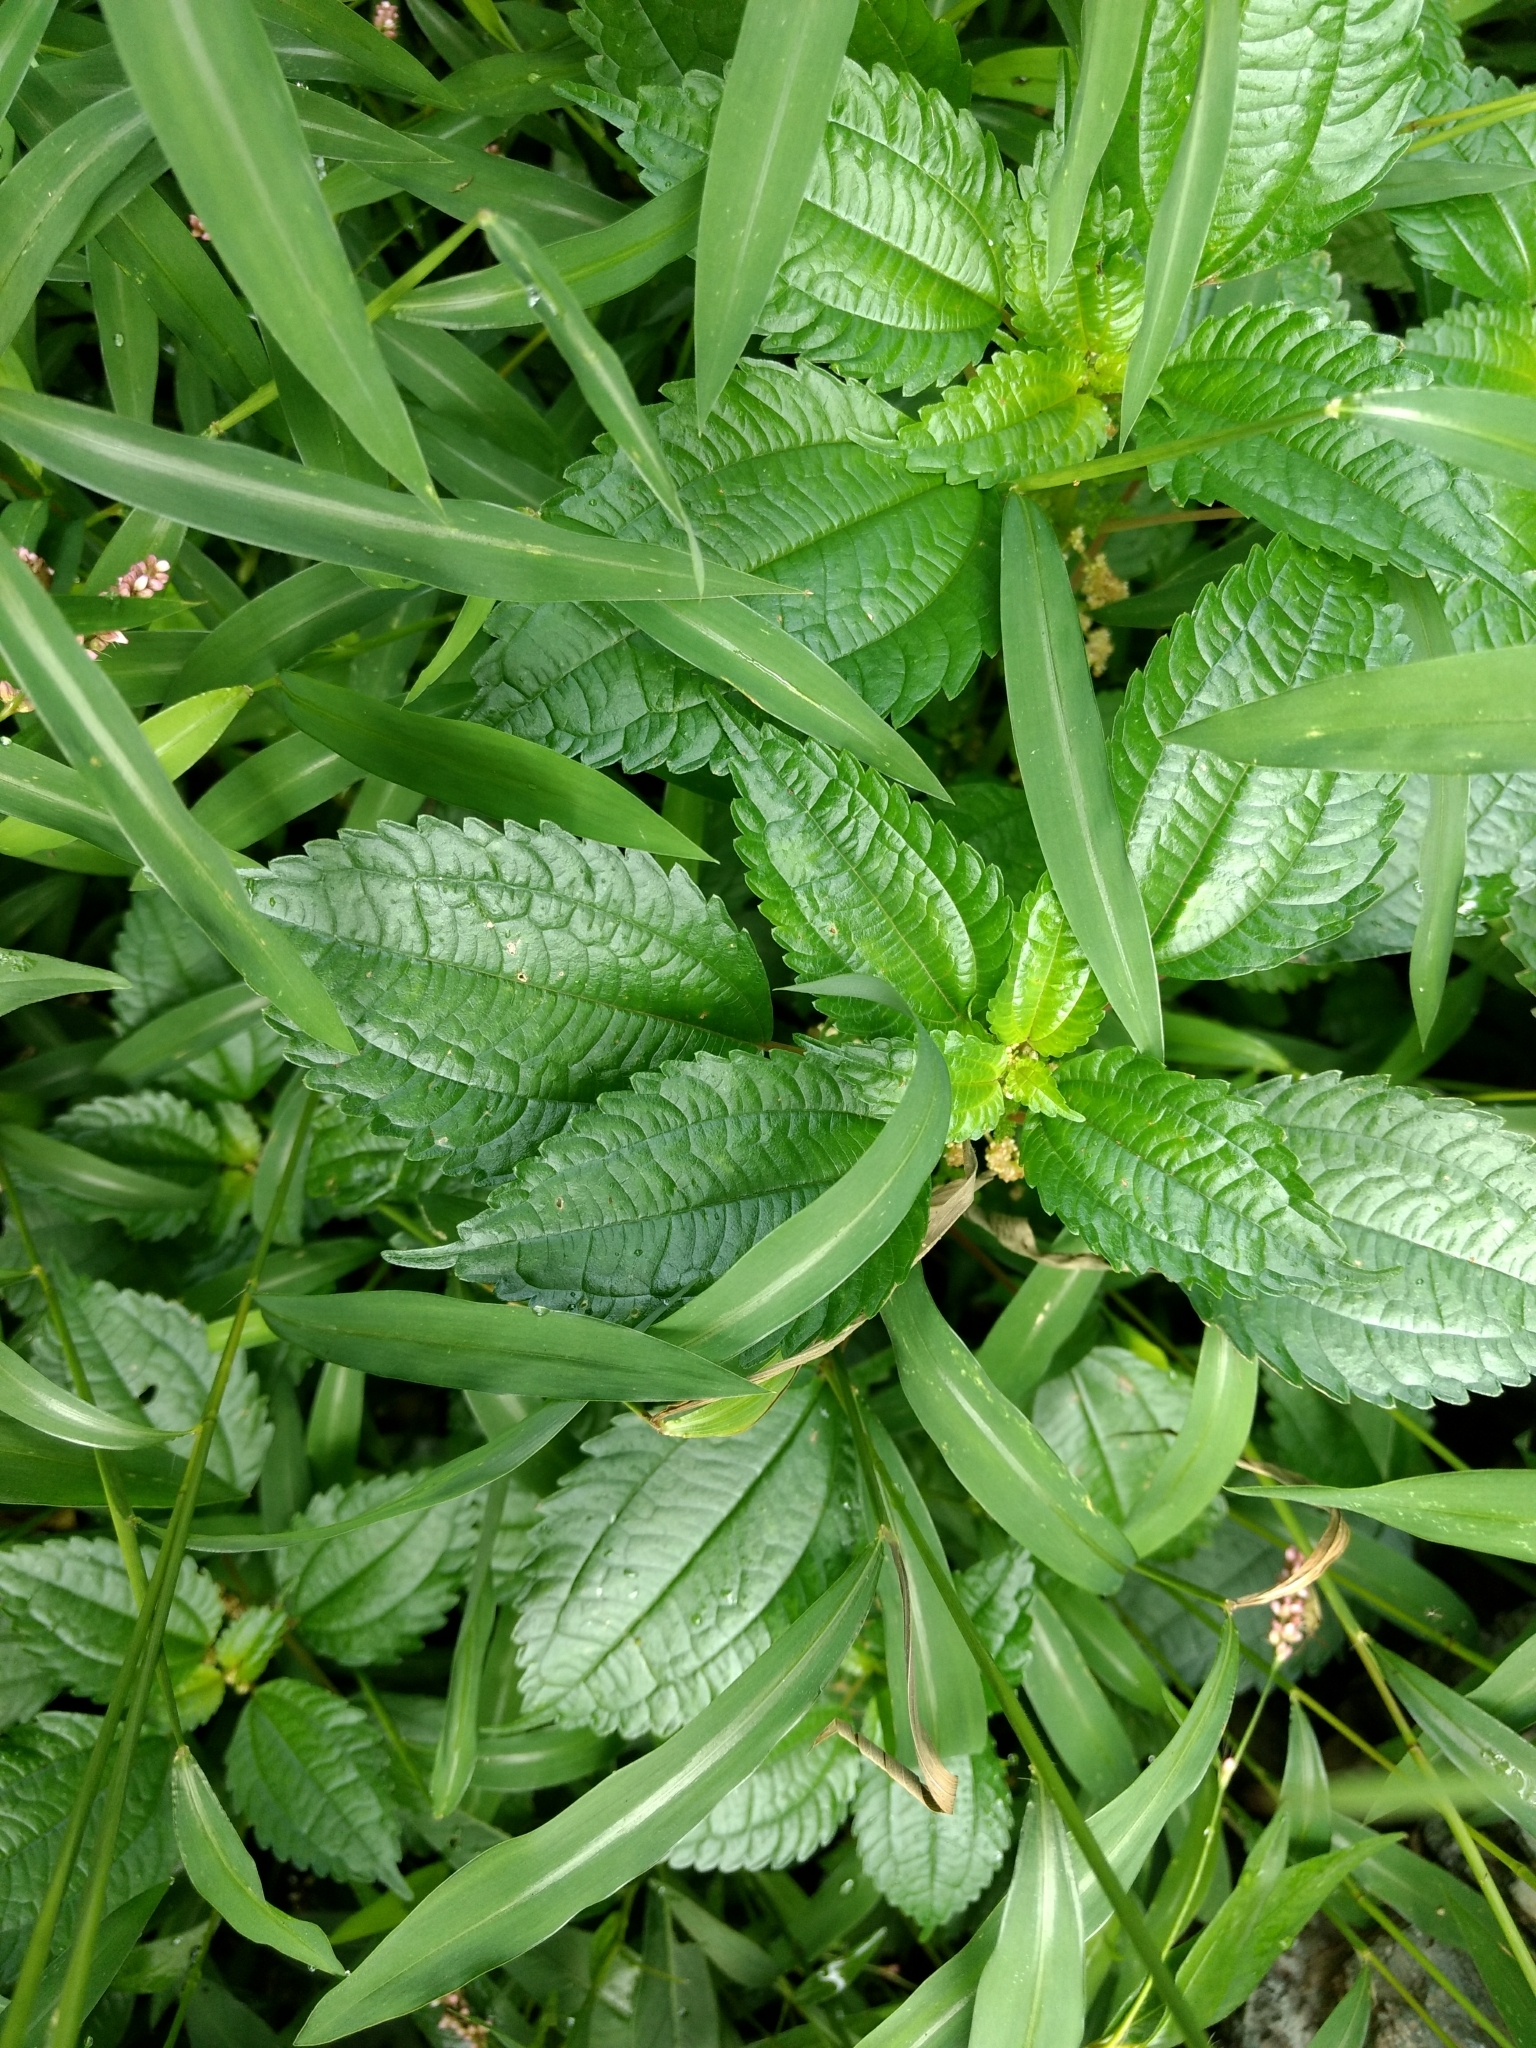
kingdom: Plantae
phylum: Tracheophyta
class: Magnoliopsida
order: Rosales
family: Urticaceae
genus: Pilea
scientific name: Pilea pumila
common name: Clearweed
